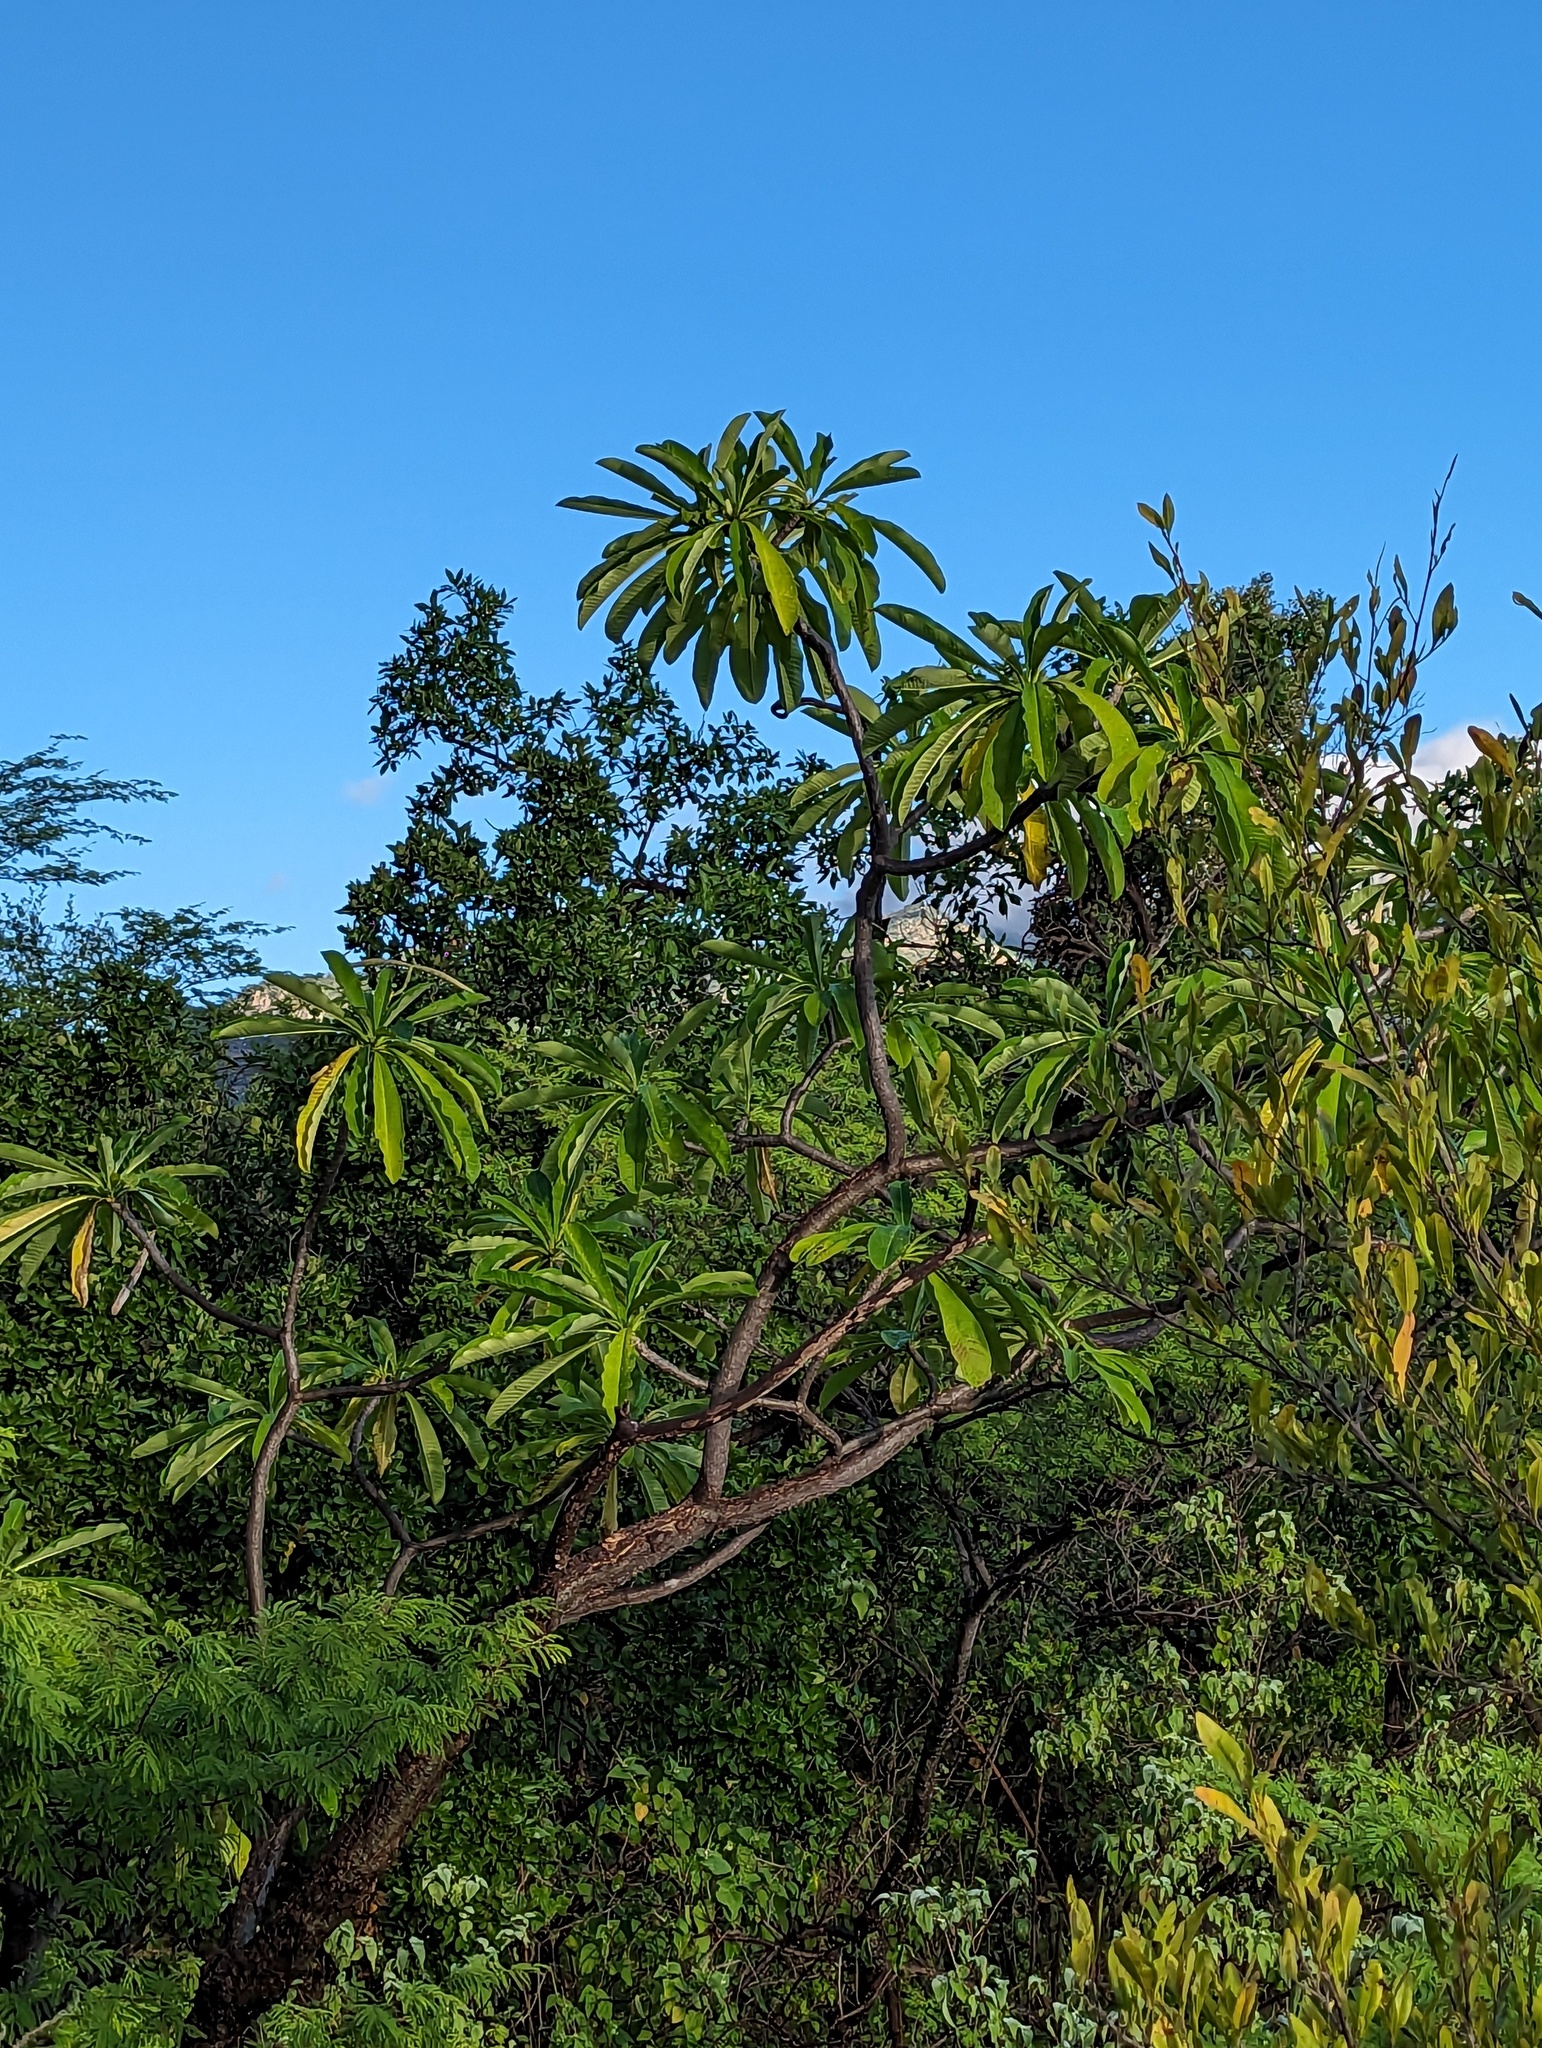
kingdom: Plantae
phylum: Tracheophyta
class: Magnoliopsida
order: Gentianales
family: Apocynaceae
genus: Plumeria
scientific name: Plumeria rubra
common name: Pagoda-tree
